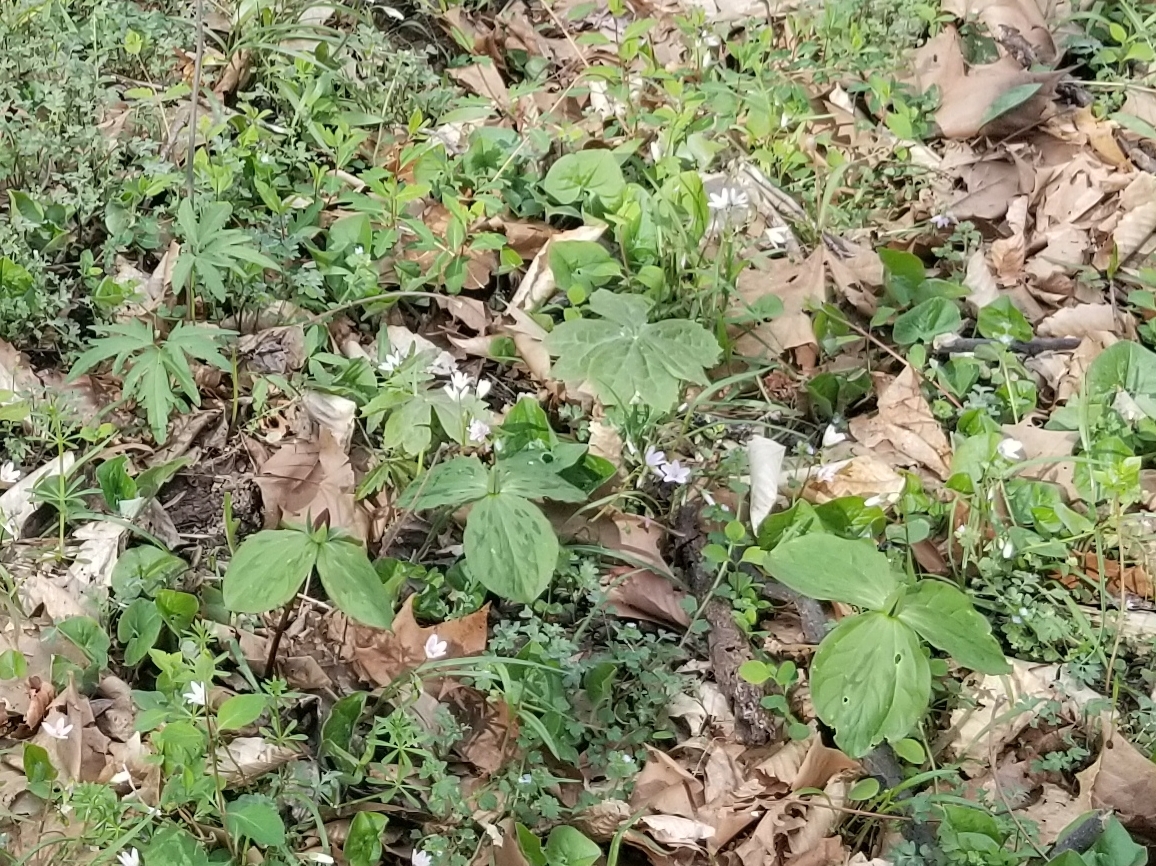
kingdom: Plantae
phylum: Tracheophyta
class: Liliopsida
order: Liliales
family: Melanthiaceae
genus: Trillium
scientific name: Trillium sessile
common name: Sessile trillium
